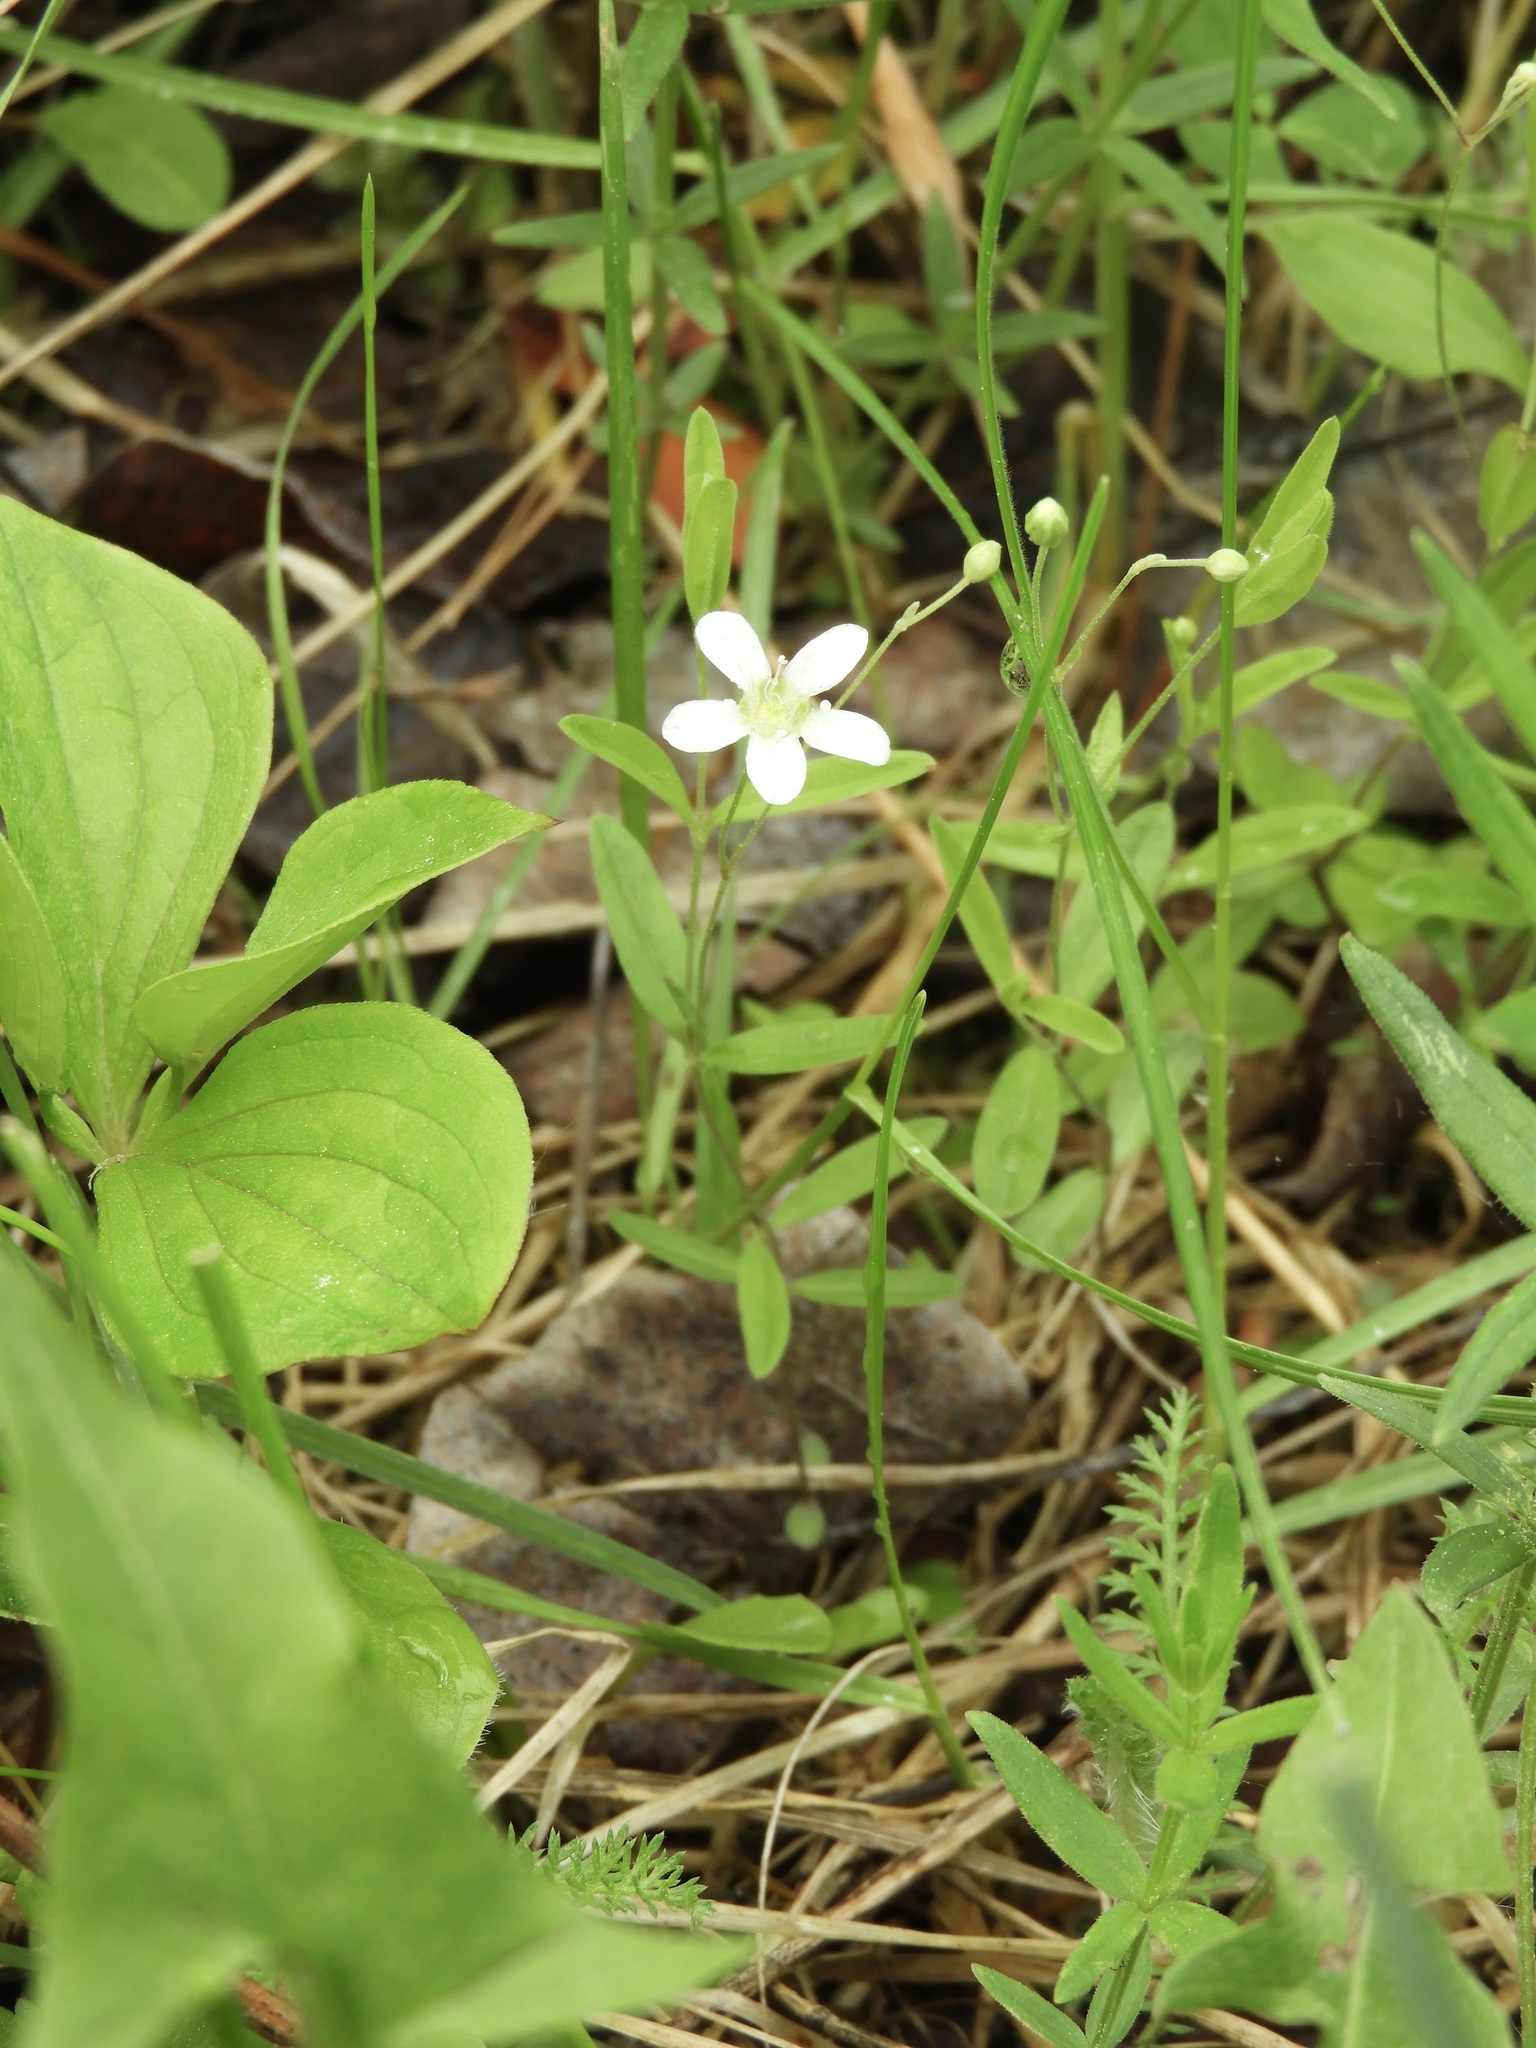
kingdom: Plantae
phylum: Tracheophyta
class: Magnoliopsida
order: Caryophyllales
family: Caryophyllaceae
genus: Moehringia
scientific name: Moehringia lateriflora
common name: Blunt-leaved sandwort
